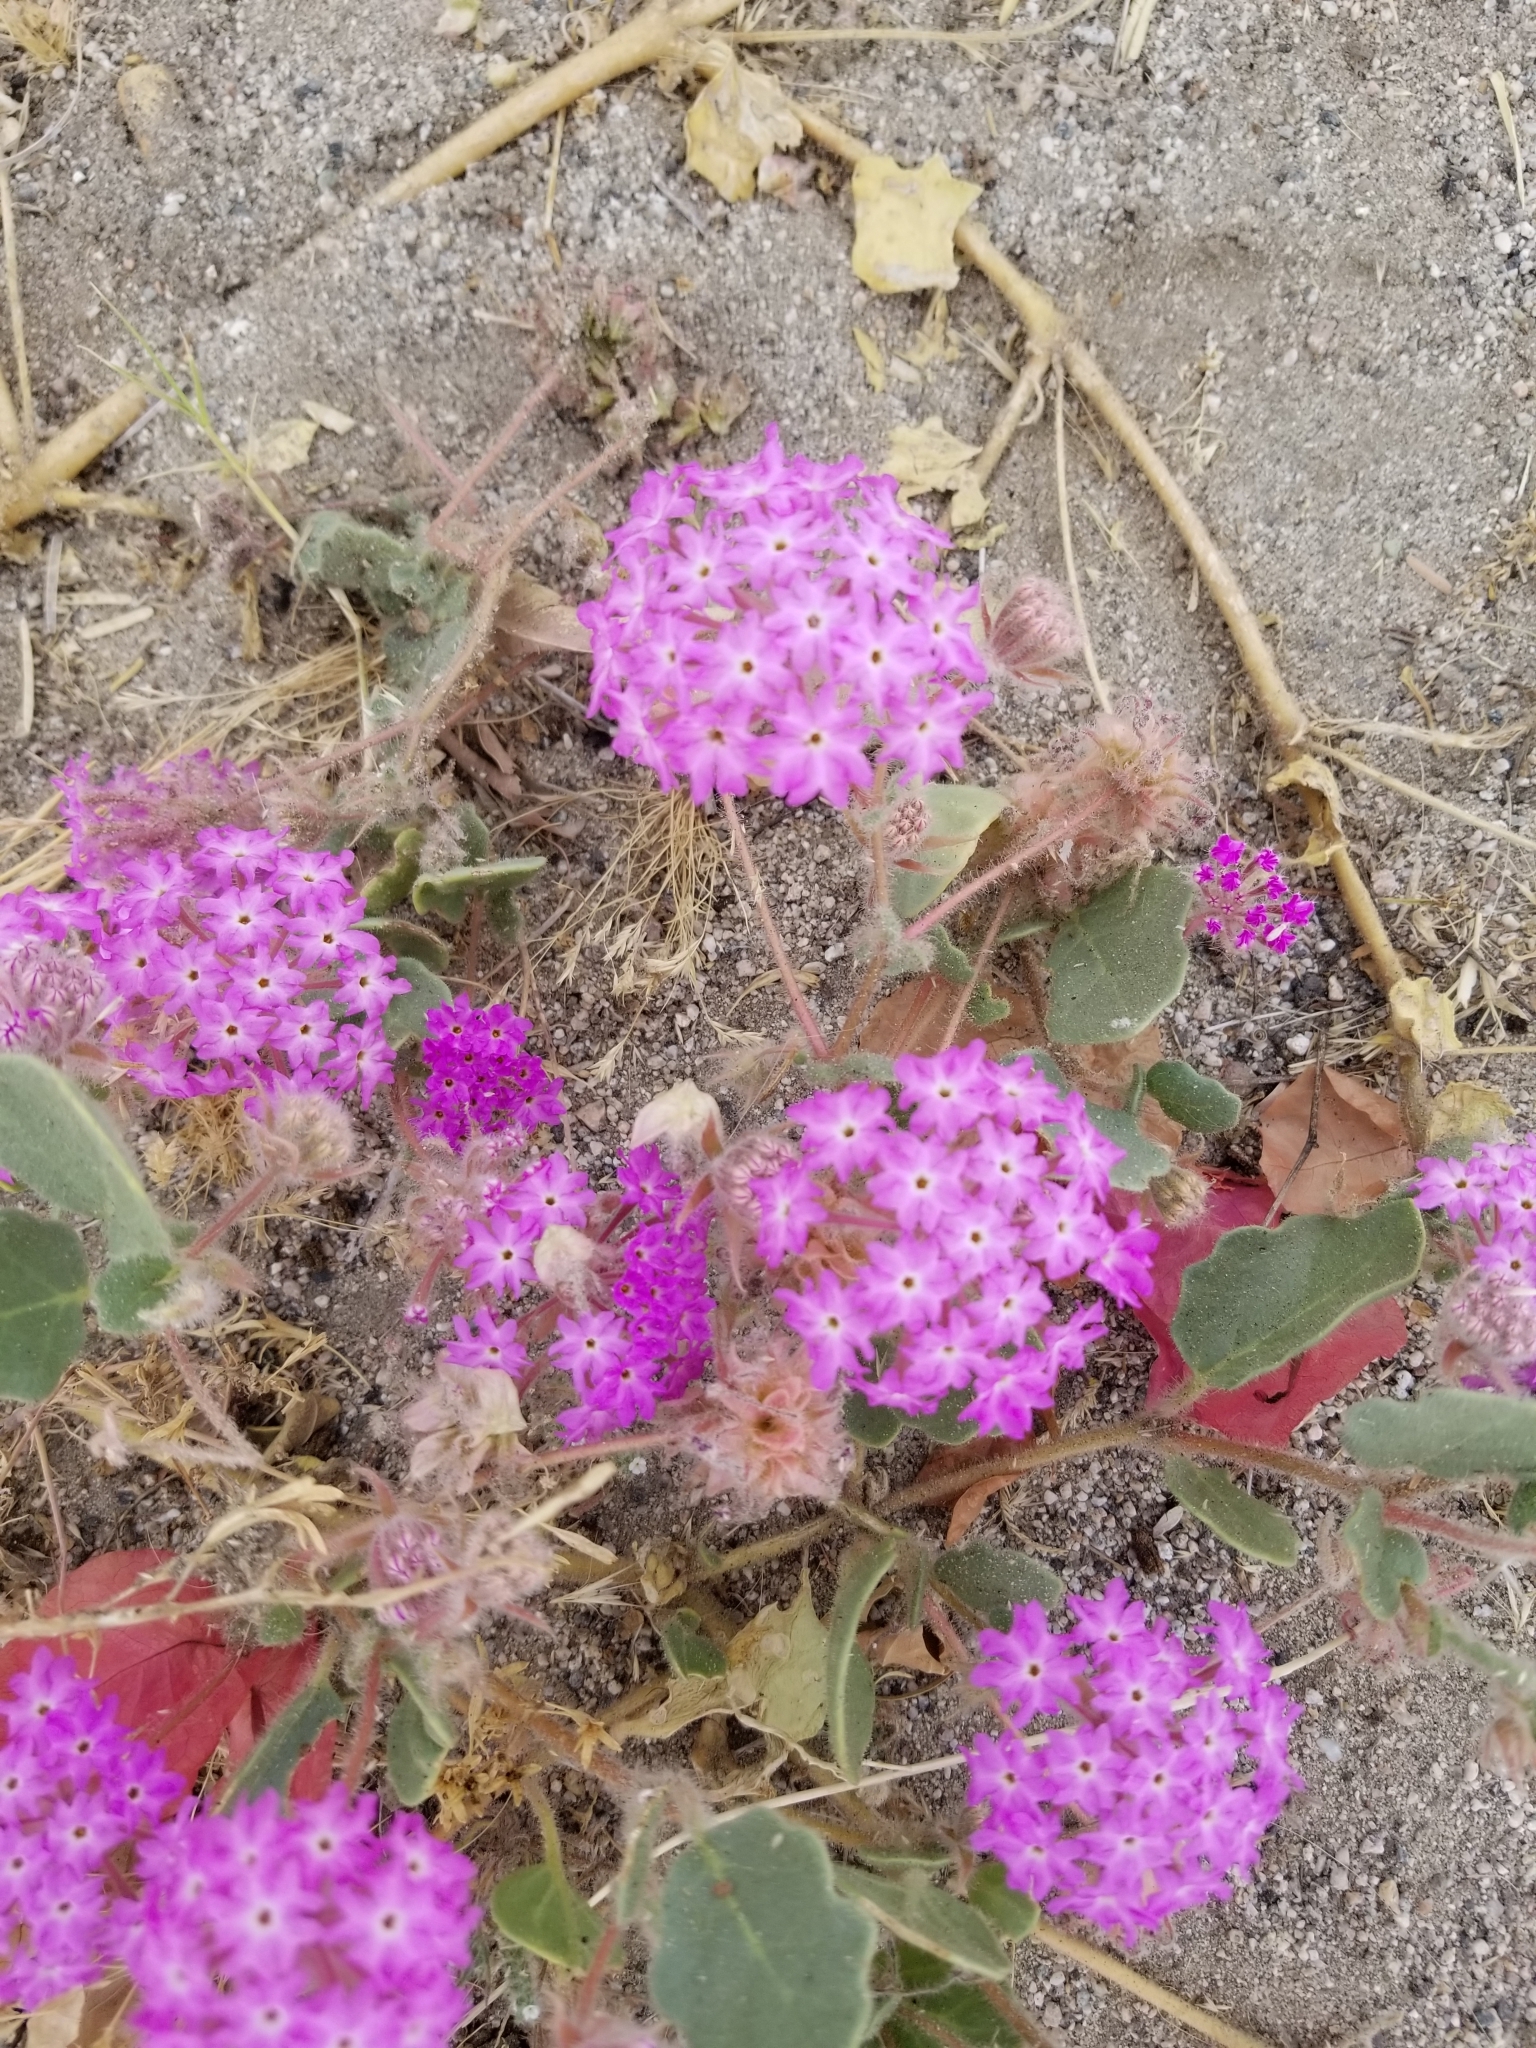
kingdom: Plantae
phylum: Tracheophyta
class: Magnoliopsida
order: Caryophyllales
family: Nyctaginaceae
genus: Abronia
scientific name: Abronia villosa
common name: Desert sand-verbena
